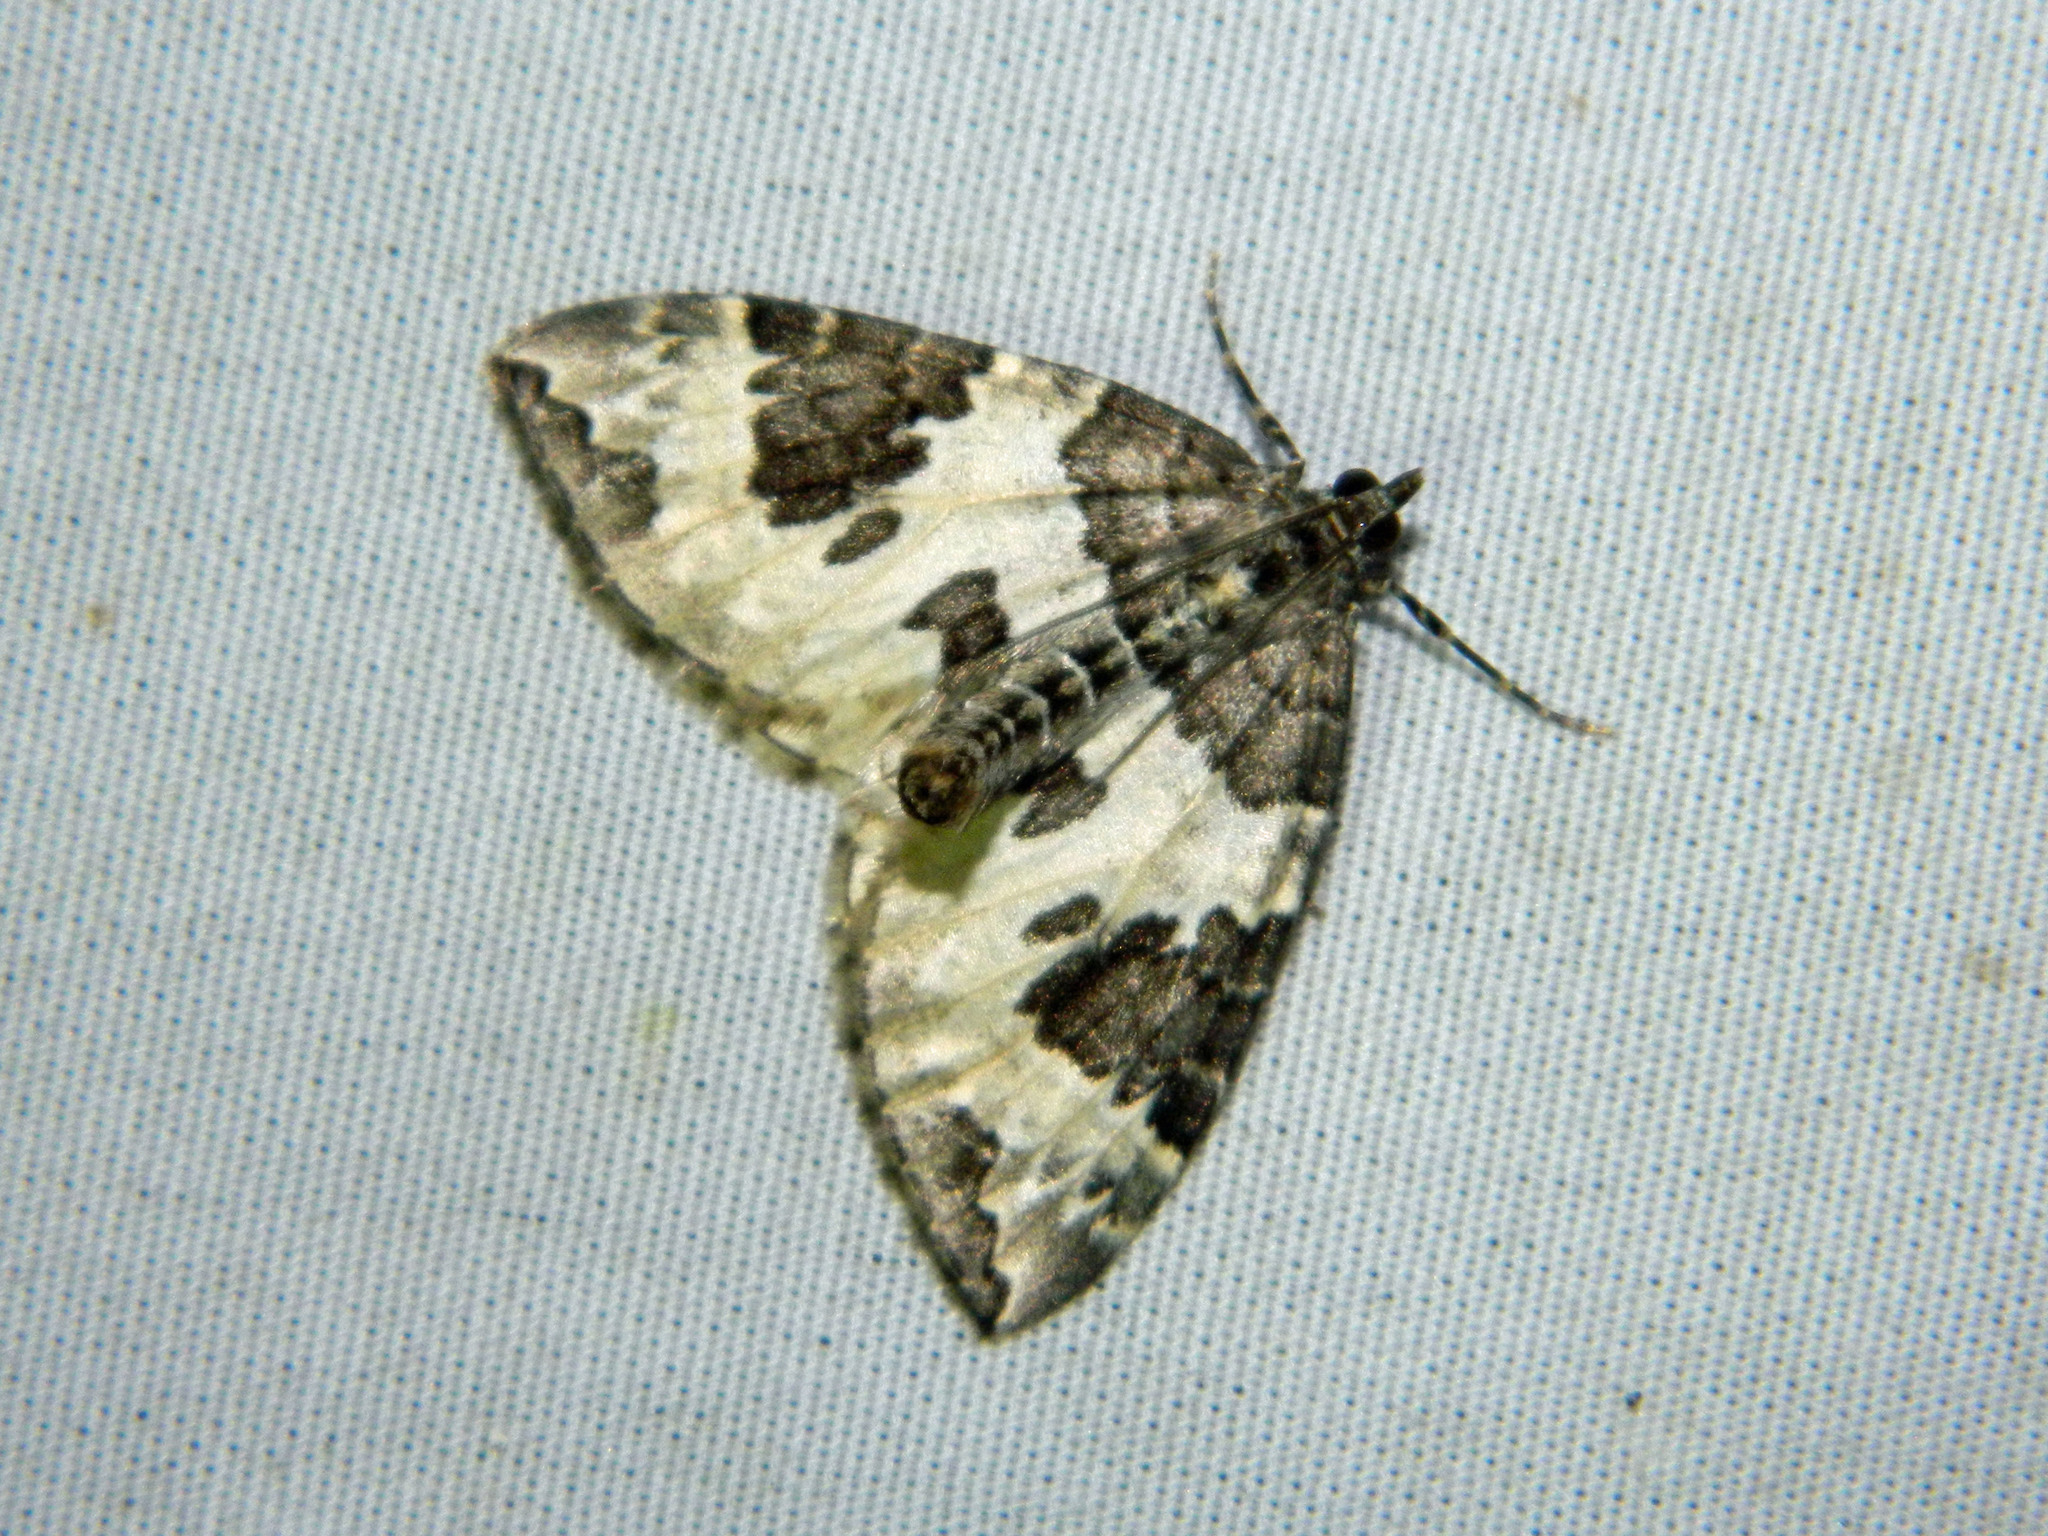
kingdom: Animalia
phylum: Arthropoda
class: Insecta
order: Lepidoptera
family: Geometridae
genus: Eulithis
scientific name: Eulithis explanata
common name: White eulithis
